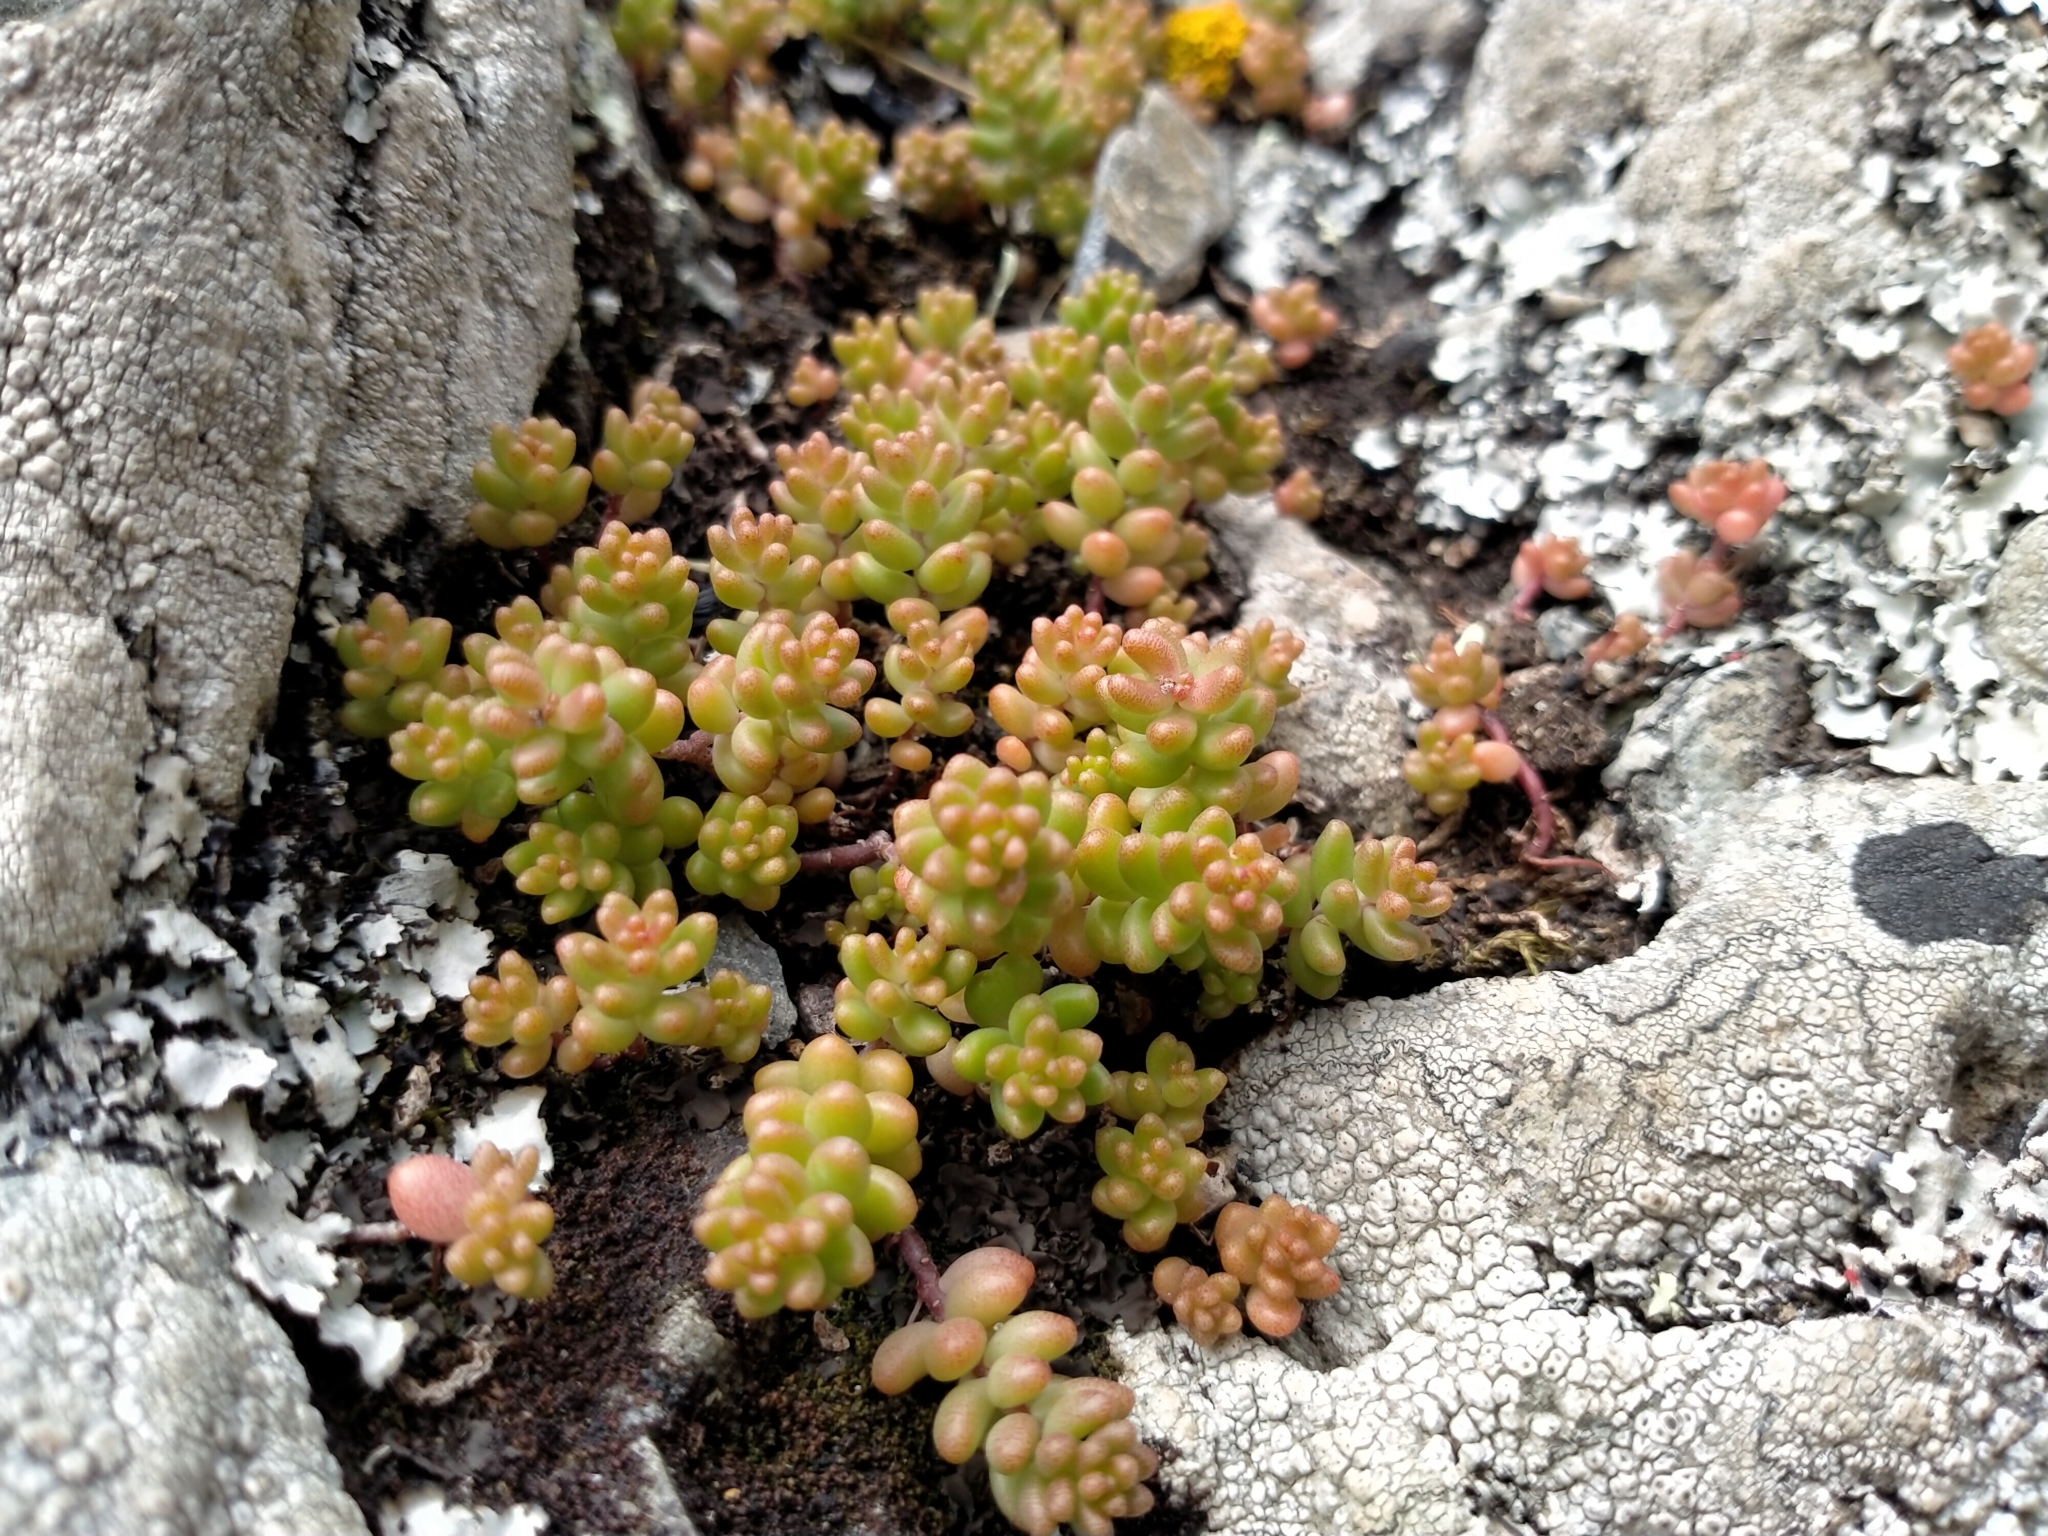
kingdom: Plantae
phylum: Tracheophyta
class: Magnoliopsida
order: Saxifragales
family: Crassulaceae
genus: Sedum
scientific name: Sedum album
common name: White stonecrop
